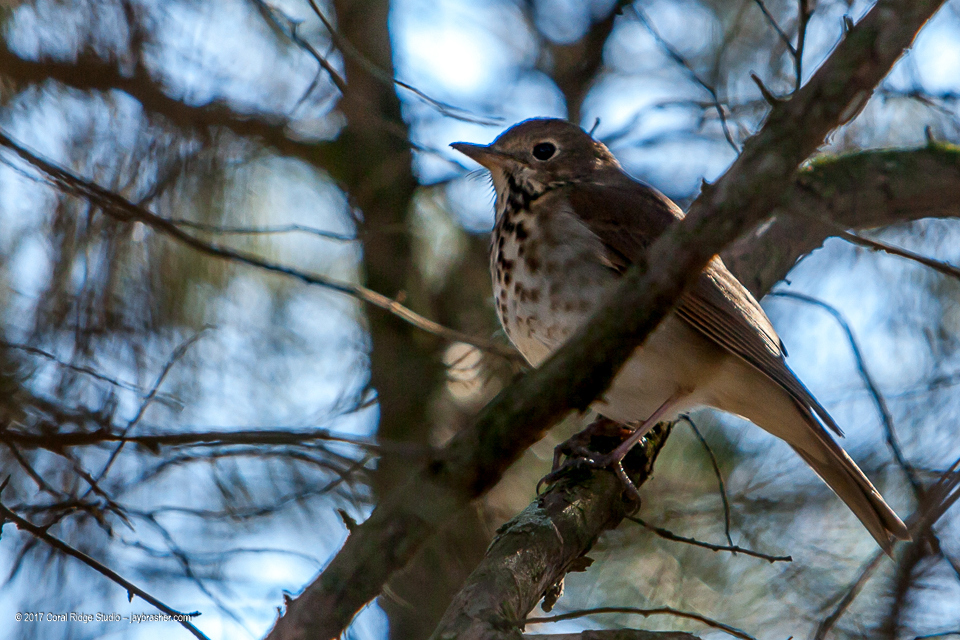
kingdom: Animalia
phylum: Chordata
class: Aves
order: Passeriformes
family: Turdidae
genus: Catharus
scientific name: Catharus guttatus
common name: Hermit thrush
